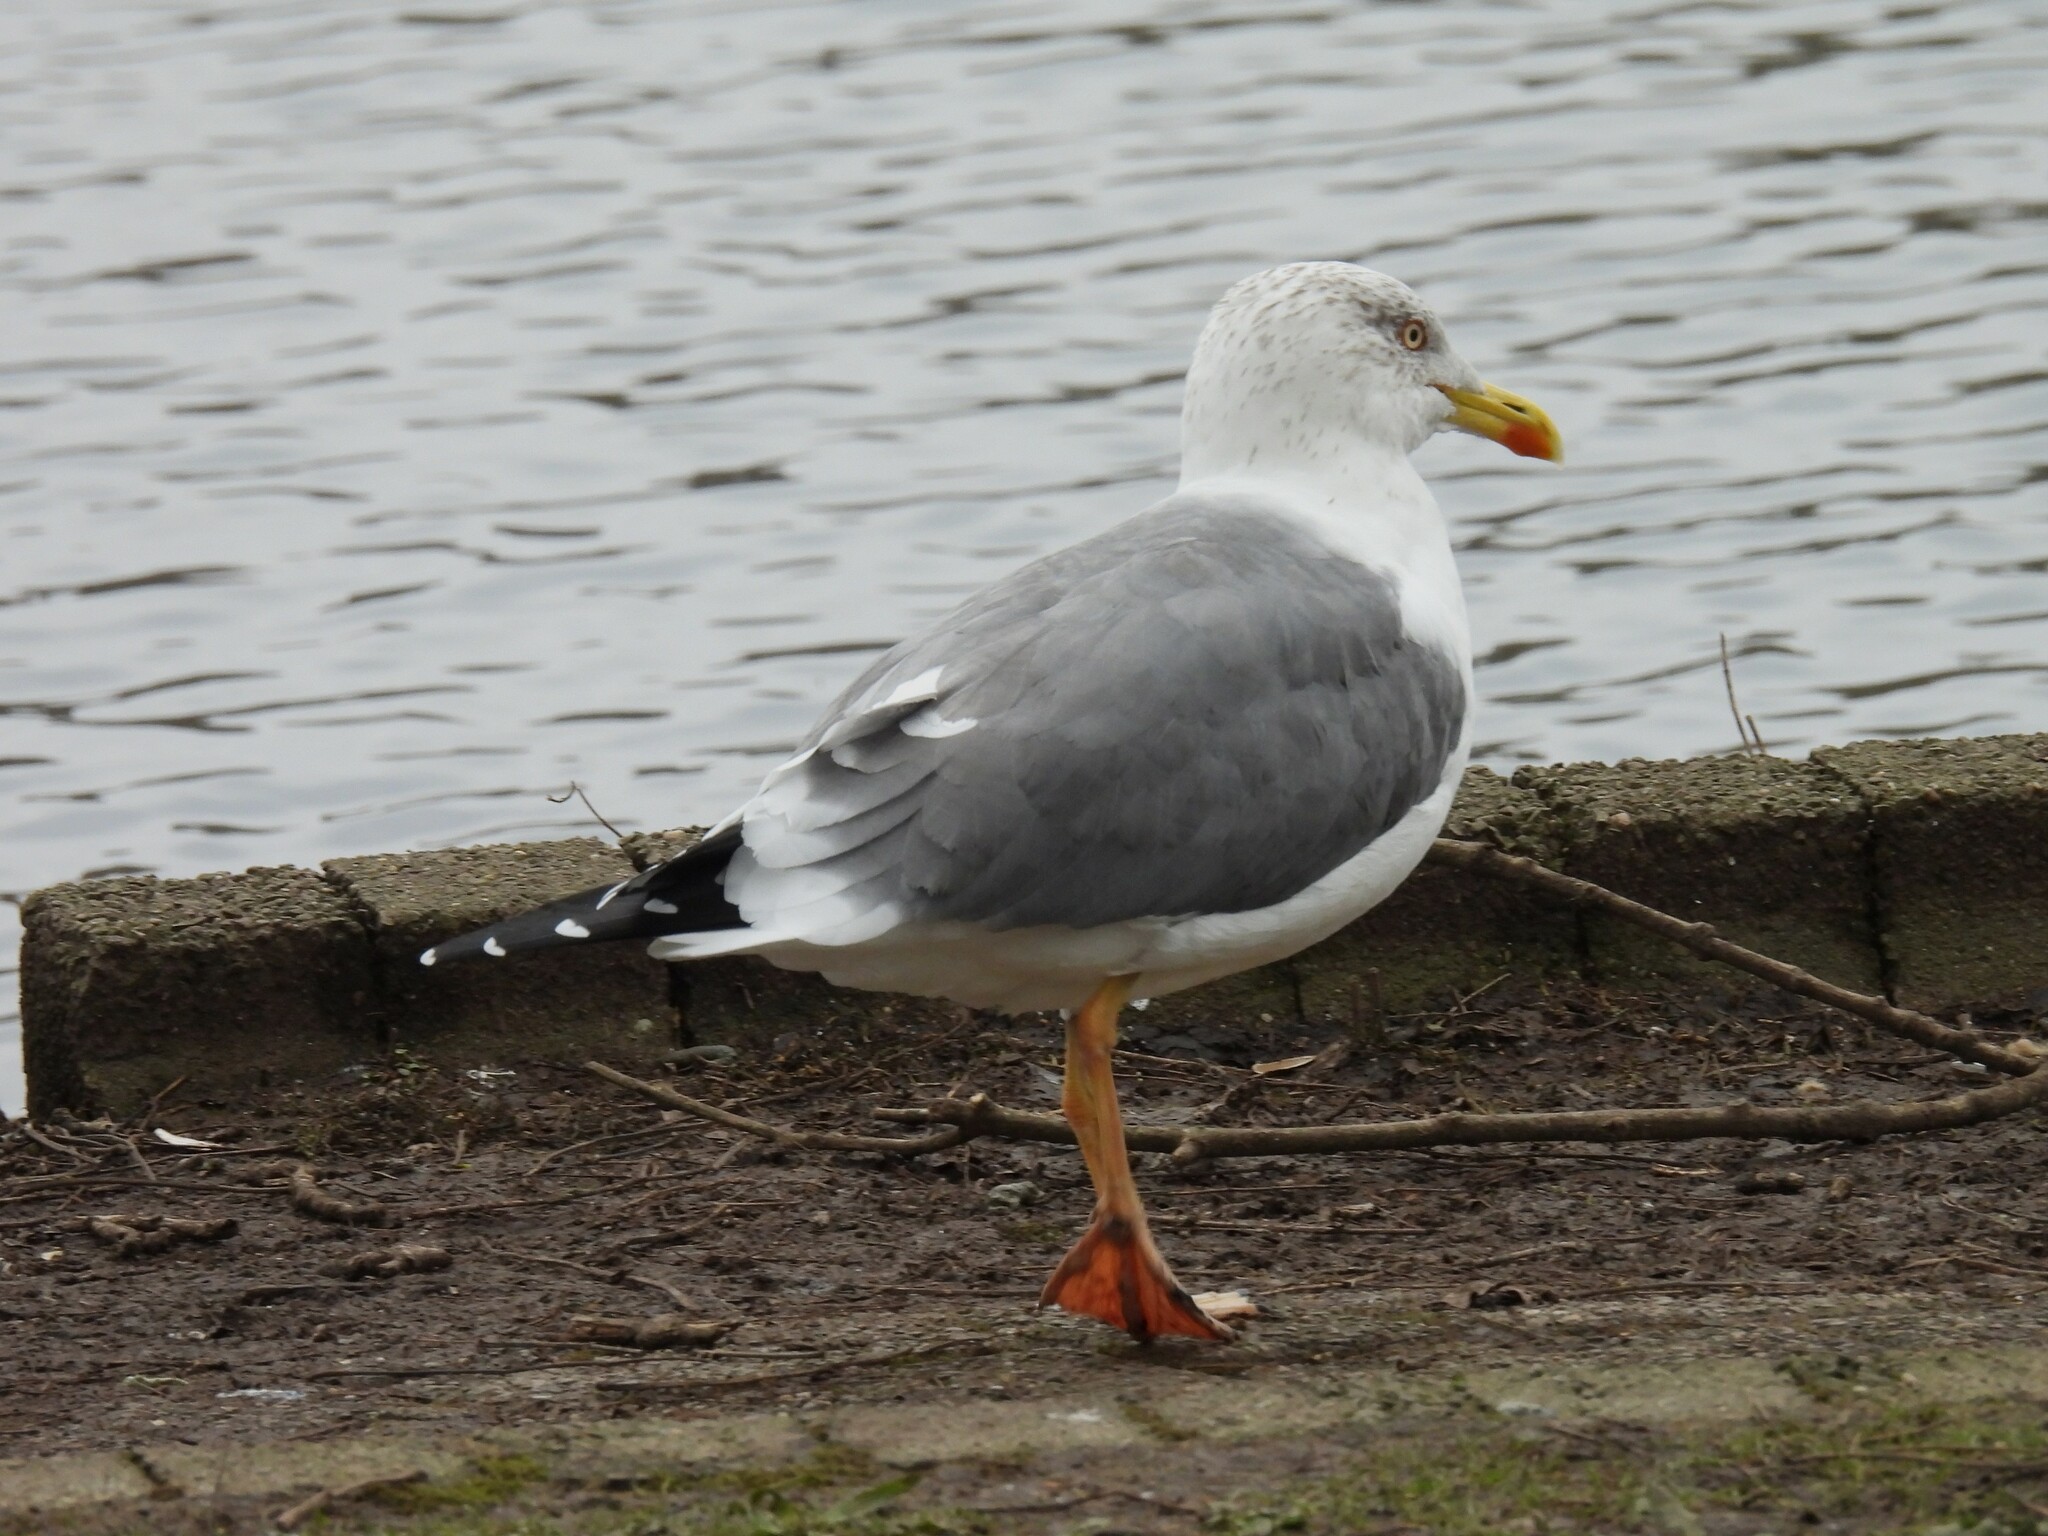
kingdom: Animalia
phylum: Chordata
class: Aves
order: Charadriiformes
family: Laridae
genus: Larus
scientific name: Larus fuscus
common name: Lesser black-backed gull
